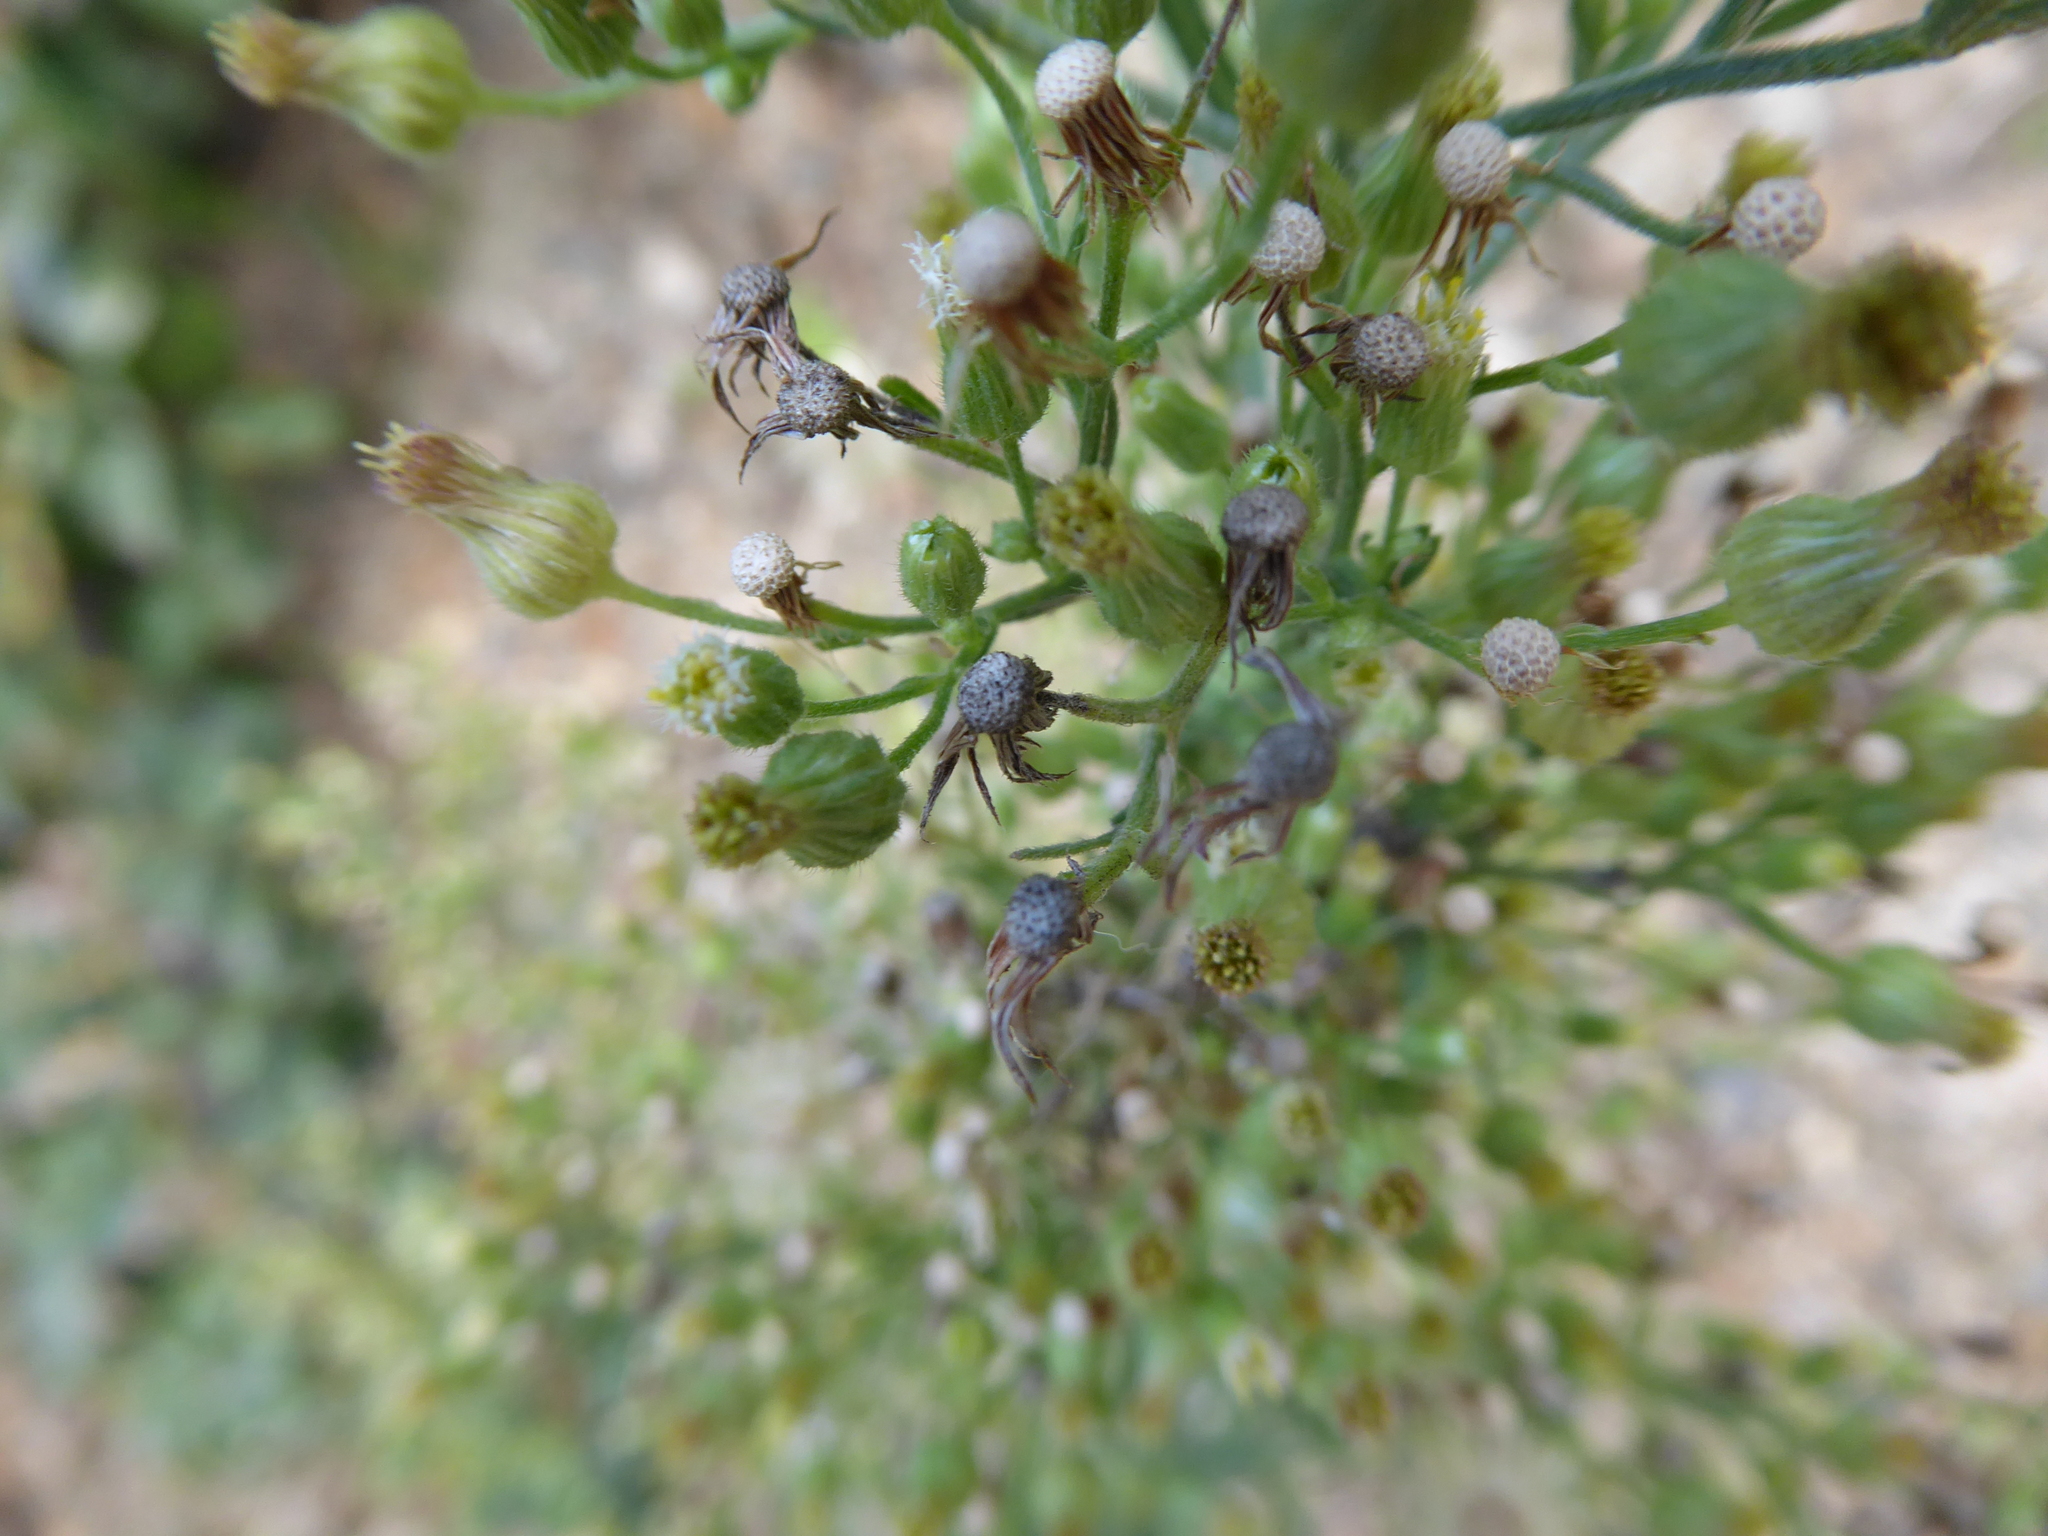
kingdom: Plantae
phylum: Tracheophyta
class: Magnoliopsida
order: Asterales
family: Asteraceae
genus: Erigeron
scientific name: Erigeron sumatrensis
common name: Daisy
